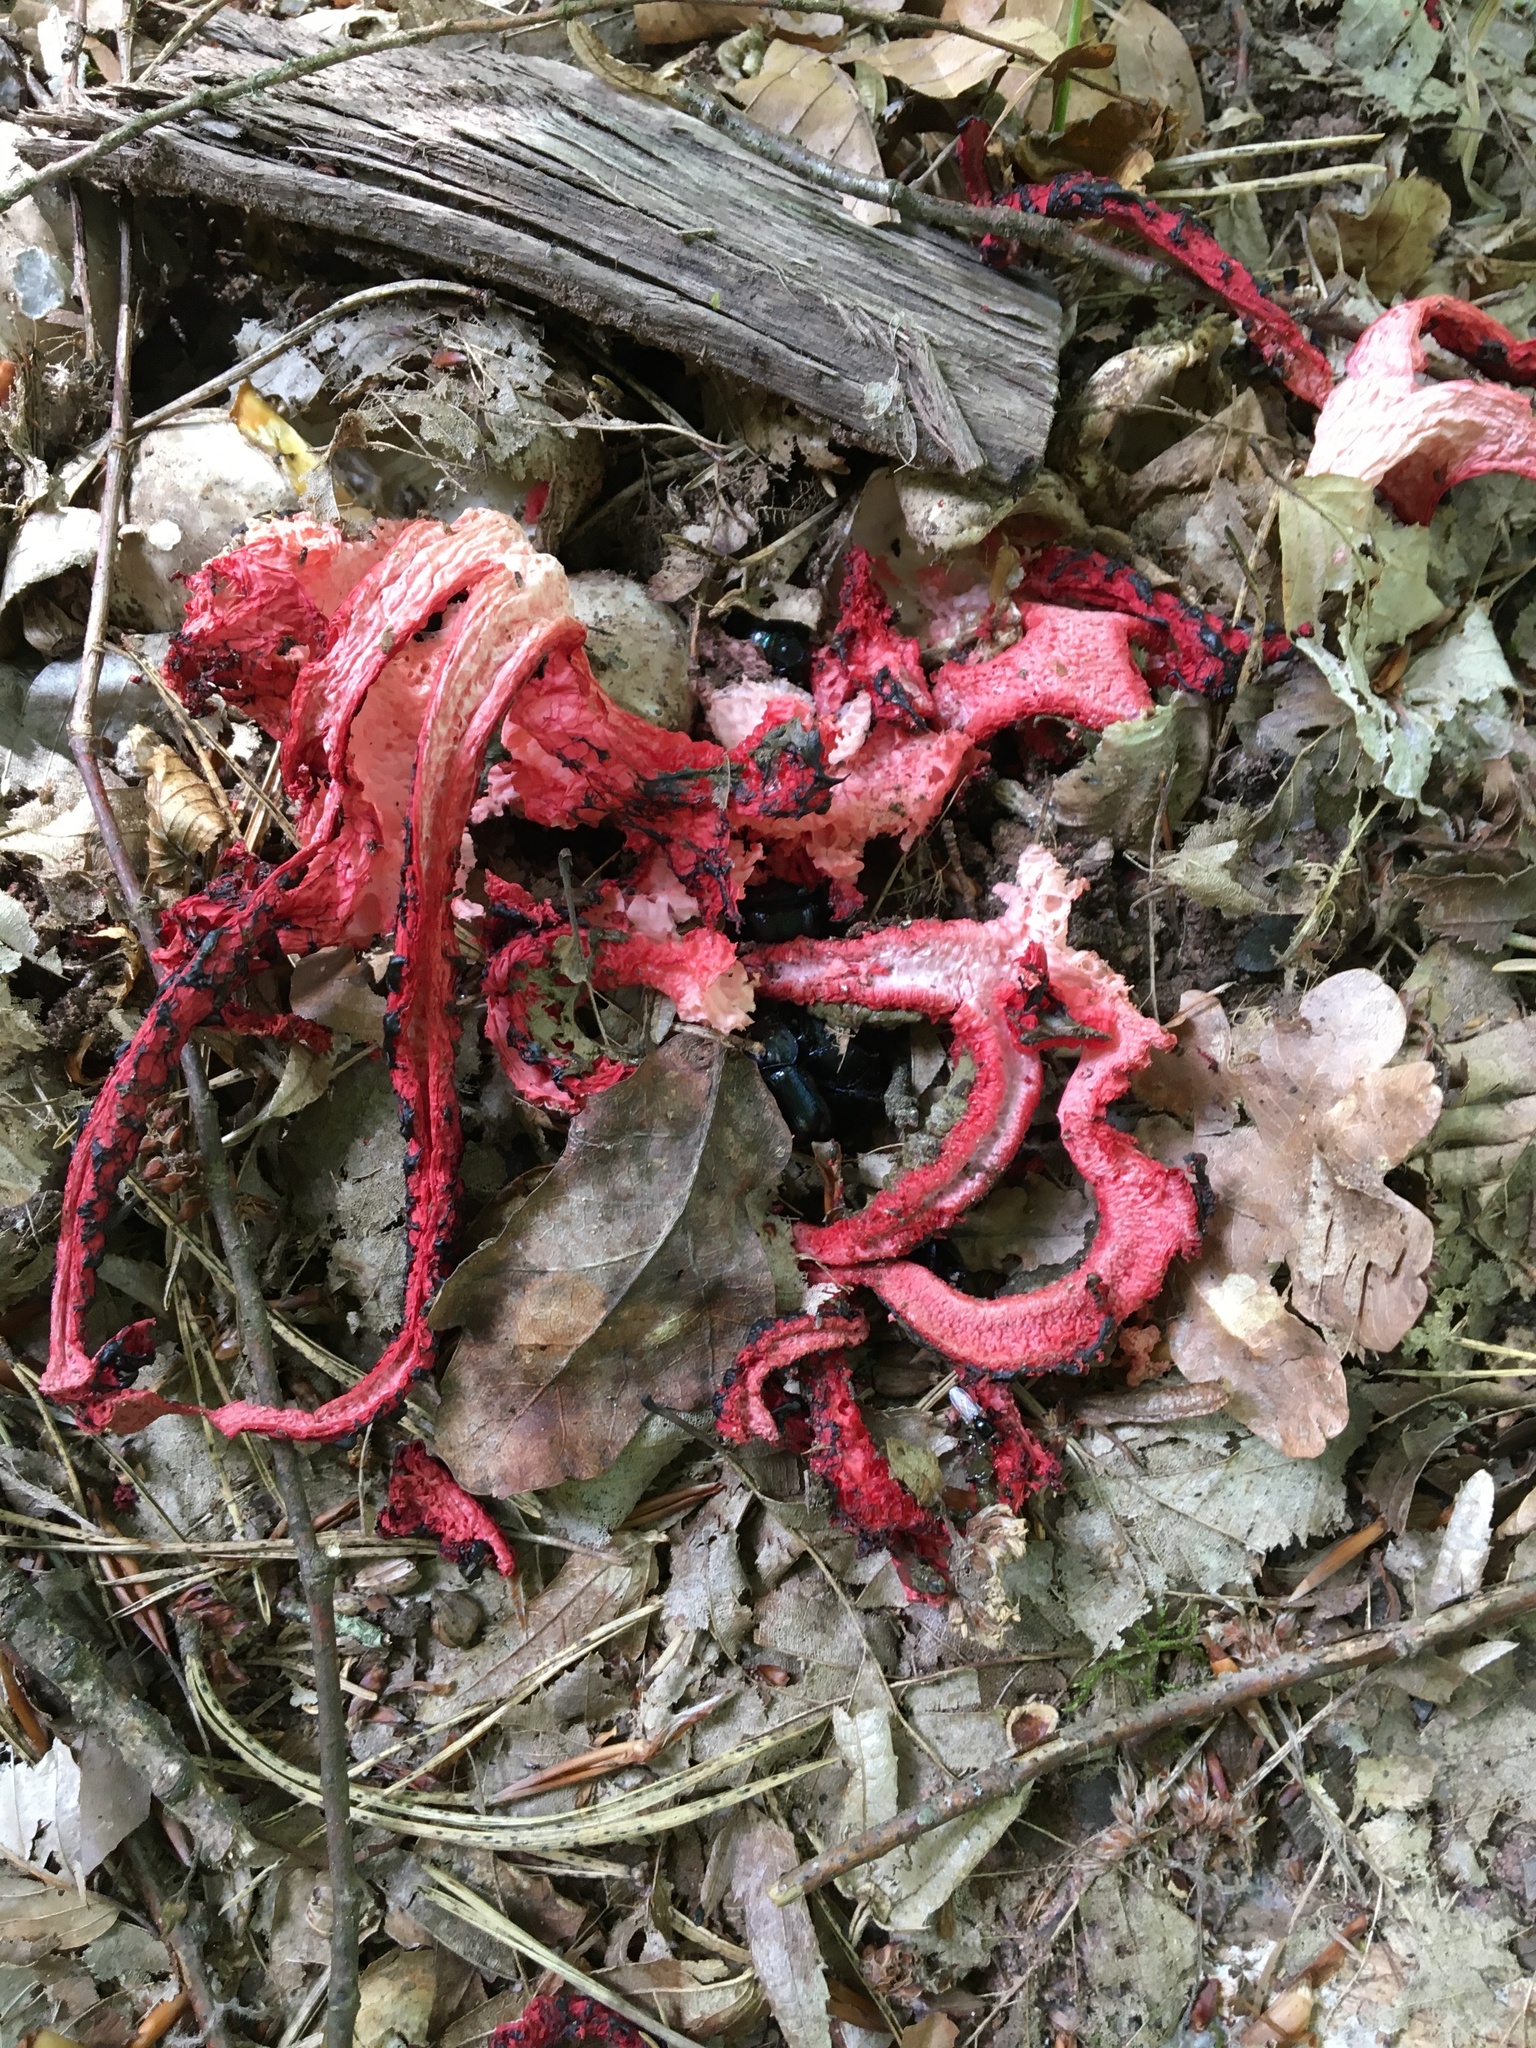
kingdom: Fungi
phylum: Basidiomycota
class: Agaricomycetes
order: Phallales
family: Phallaceae
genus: Clathrus
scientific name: Clathrus archeri
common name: Devil's fingers
